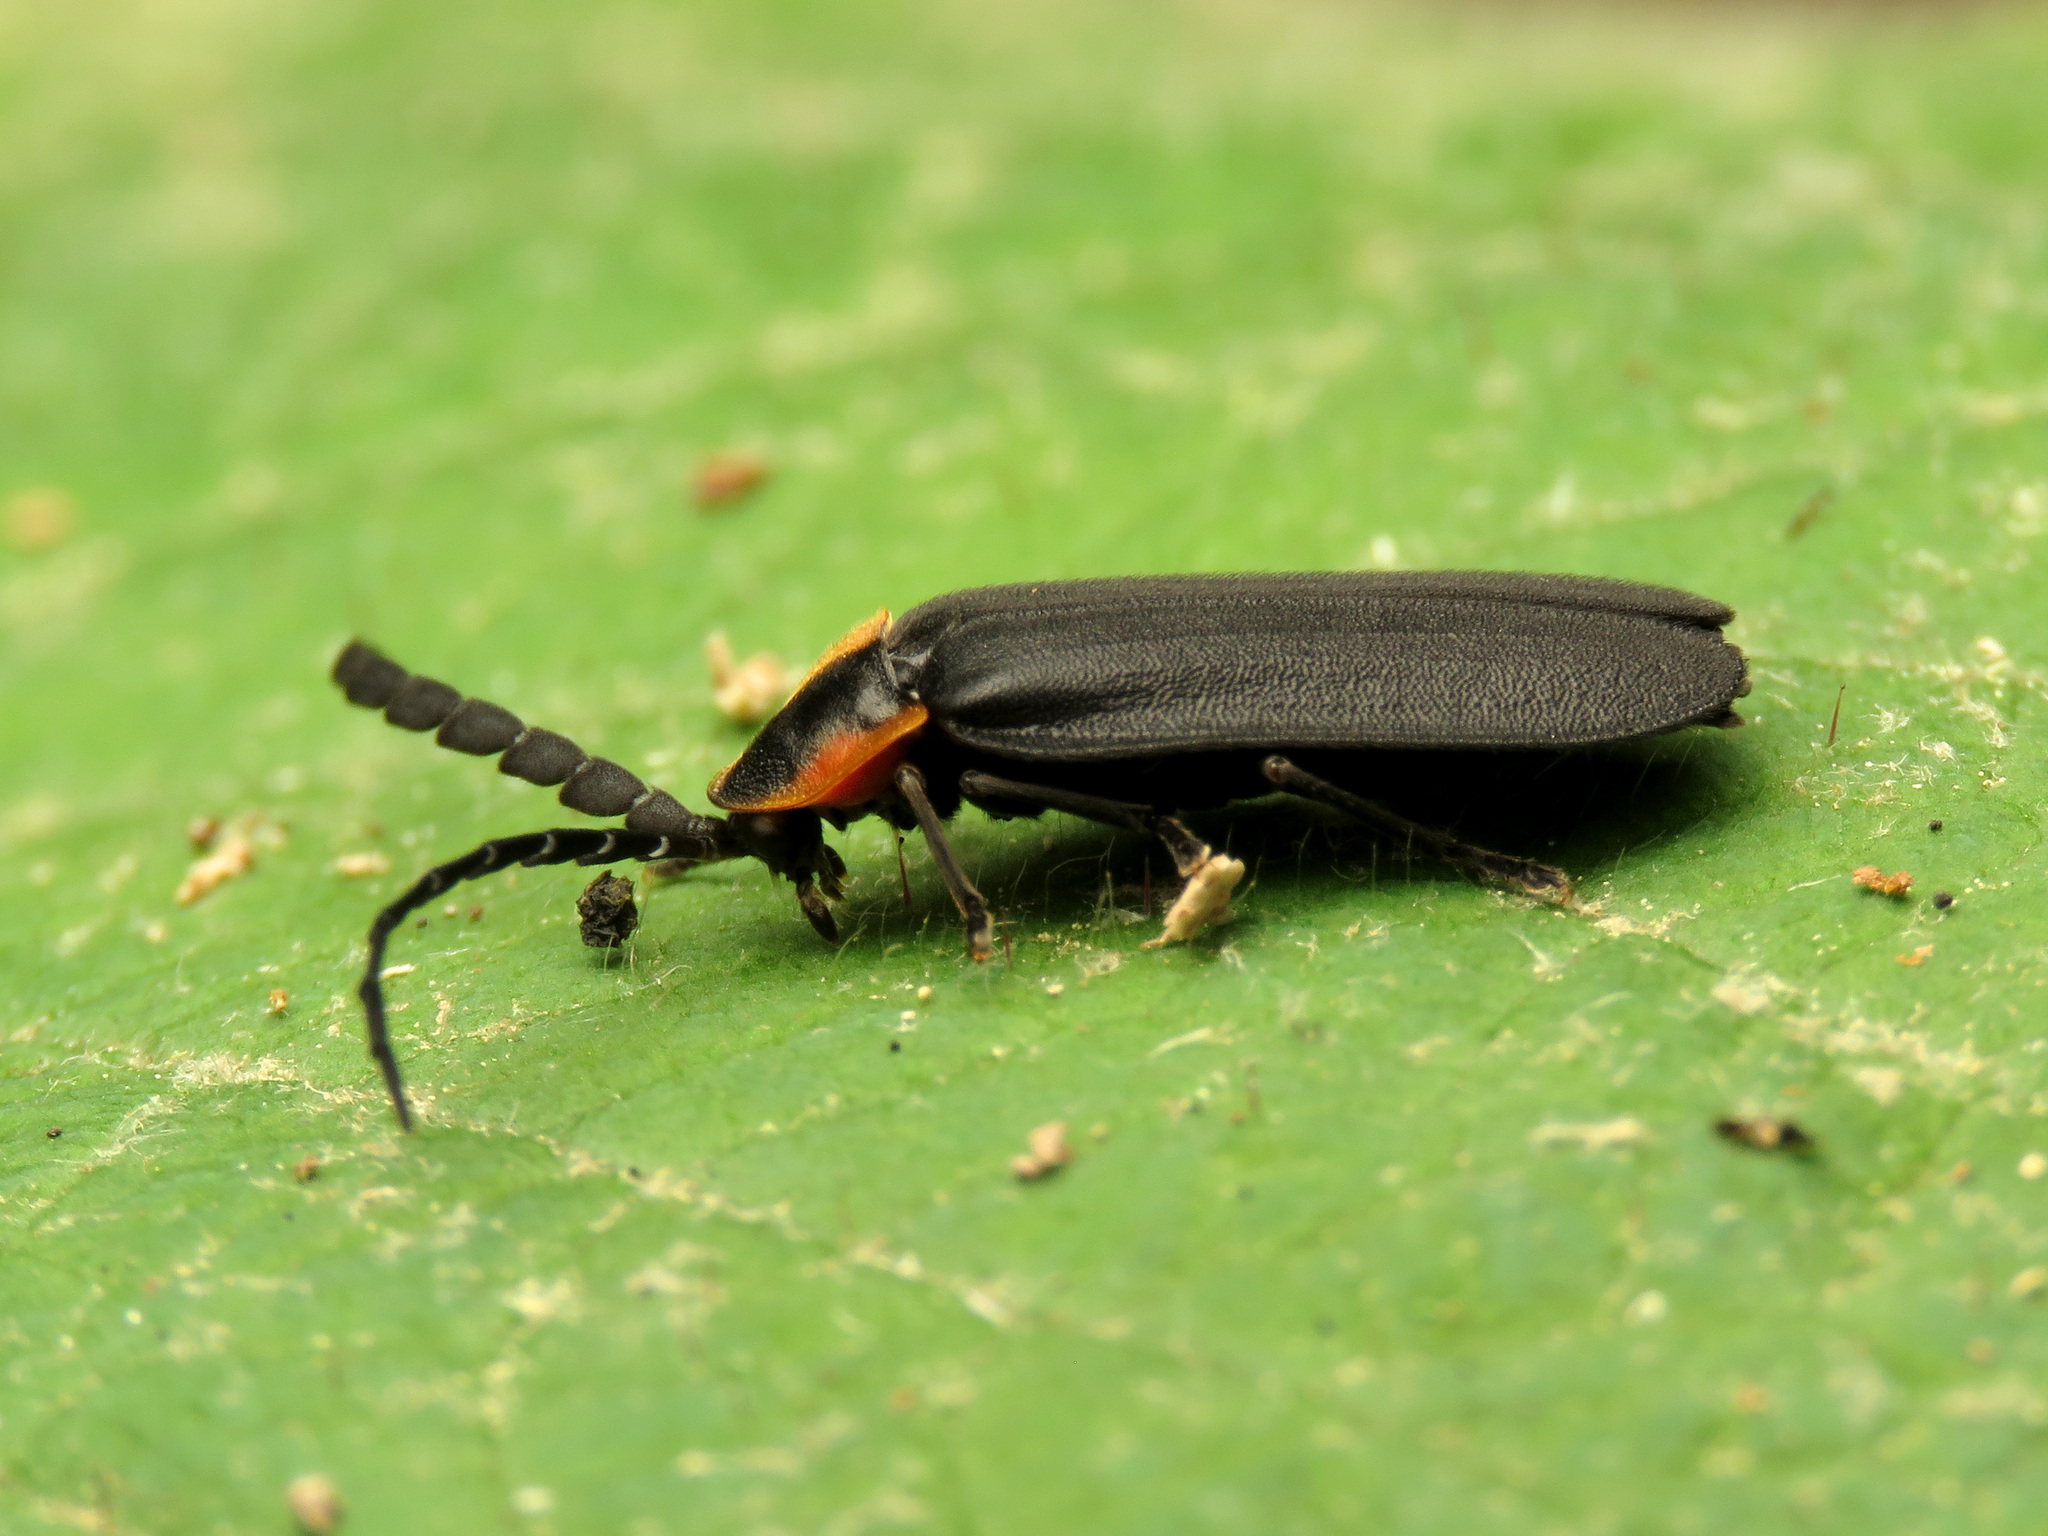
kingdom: Animalia
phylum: Arthropoda
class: Insecta
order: Coleoptera
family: Lampyridae
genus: Lucidota
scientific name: Lucidota atra
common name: Black firefly
